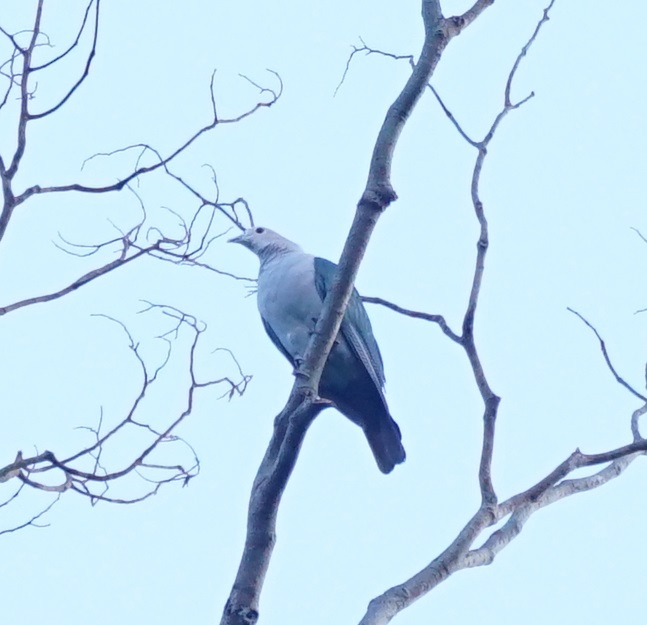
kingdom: Animalia
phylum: Chordata
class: Aves
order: Columbiformes
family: Columbidae
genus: Ducula
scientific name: Ducula aenea
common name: Green imperial pigeon
